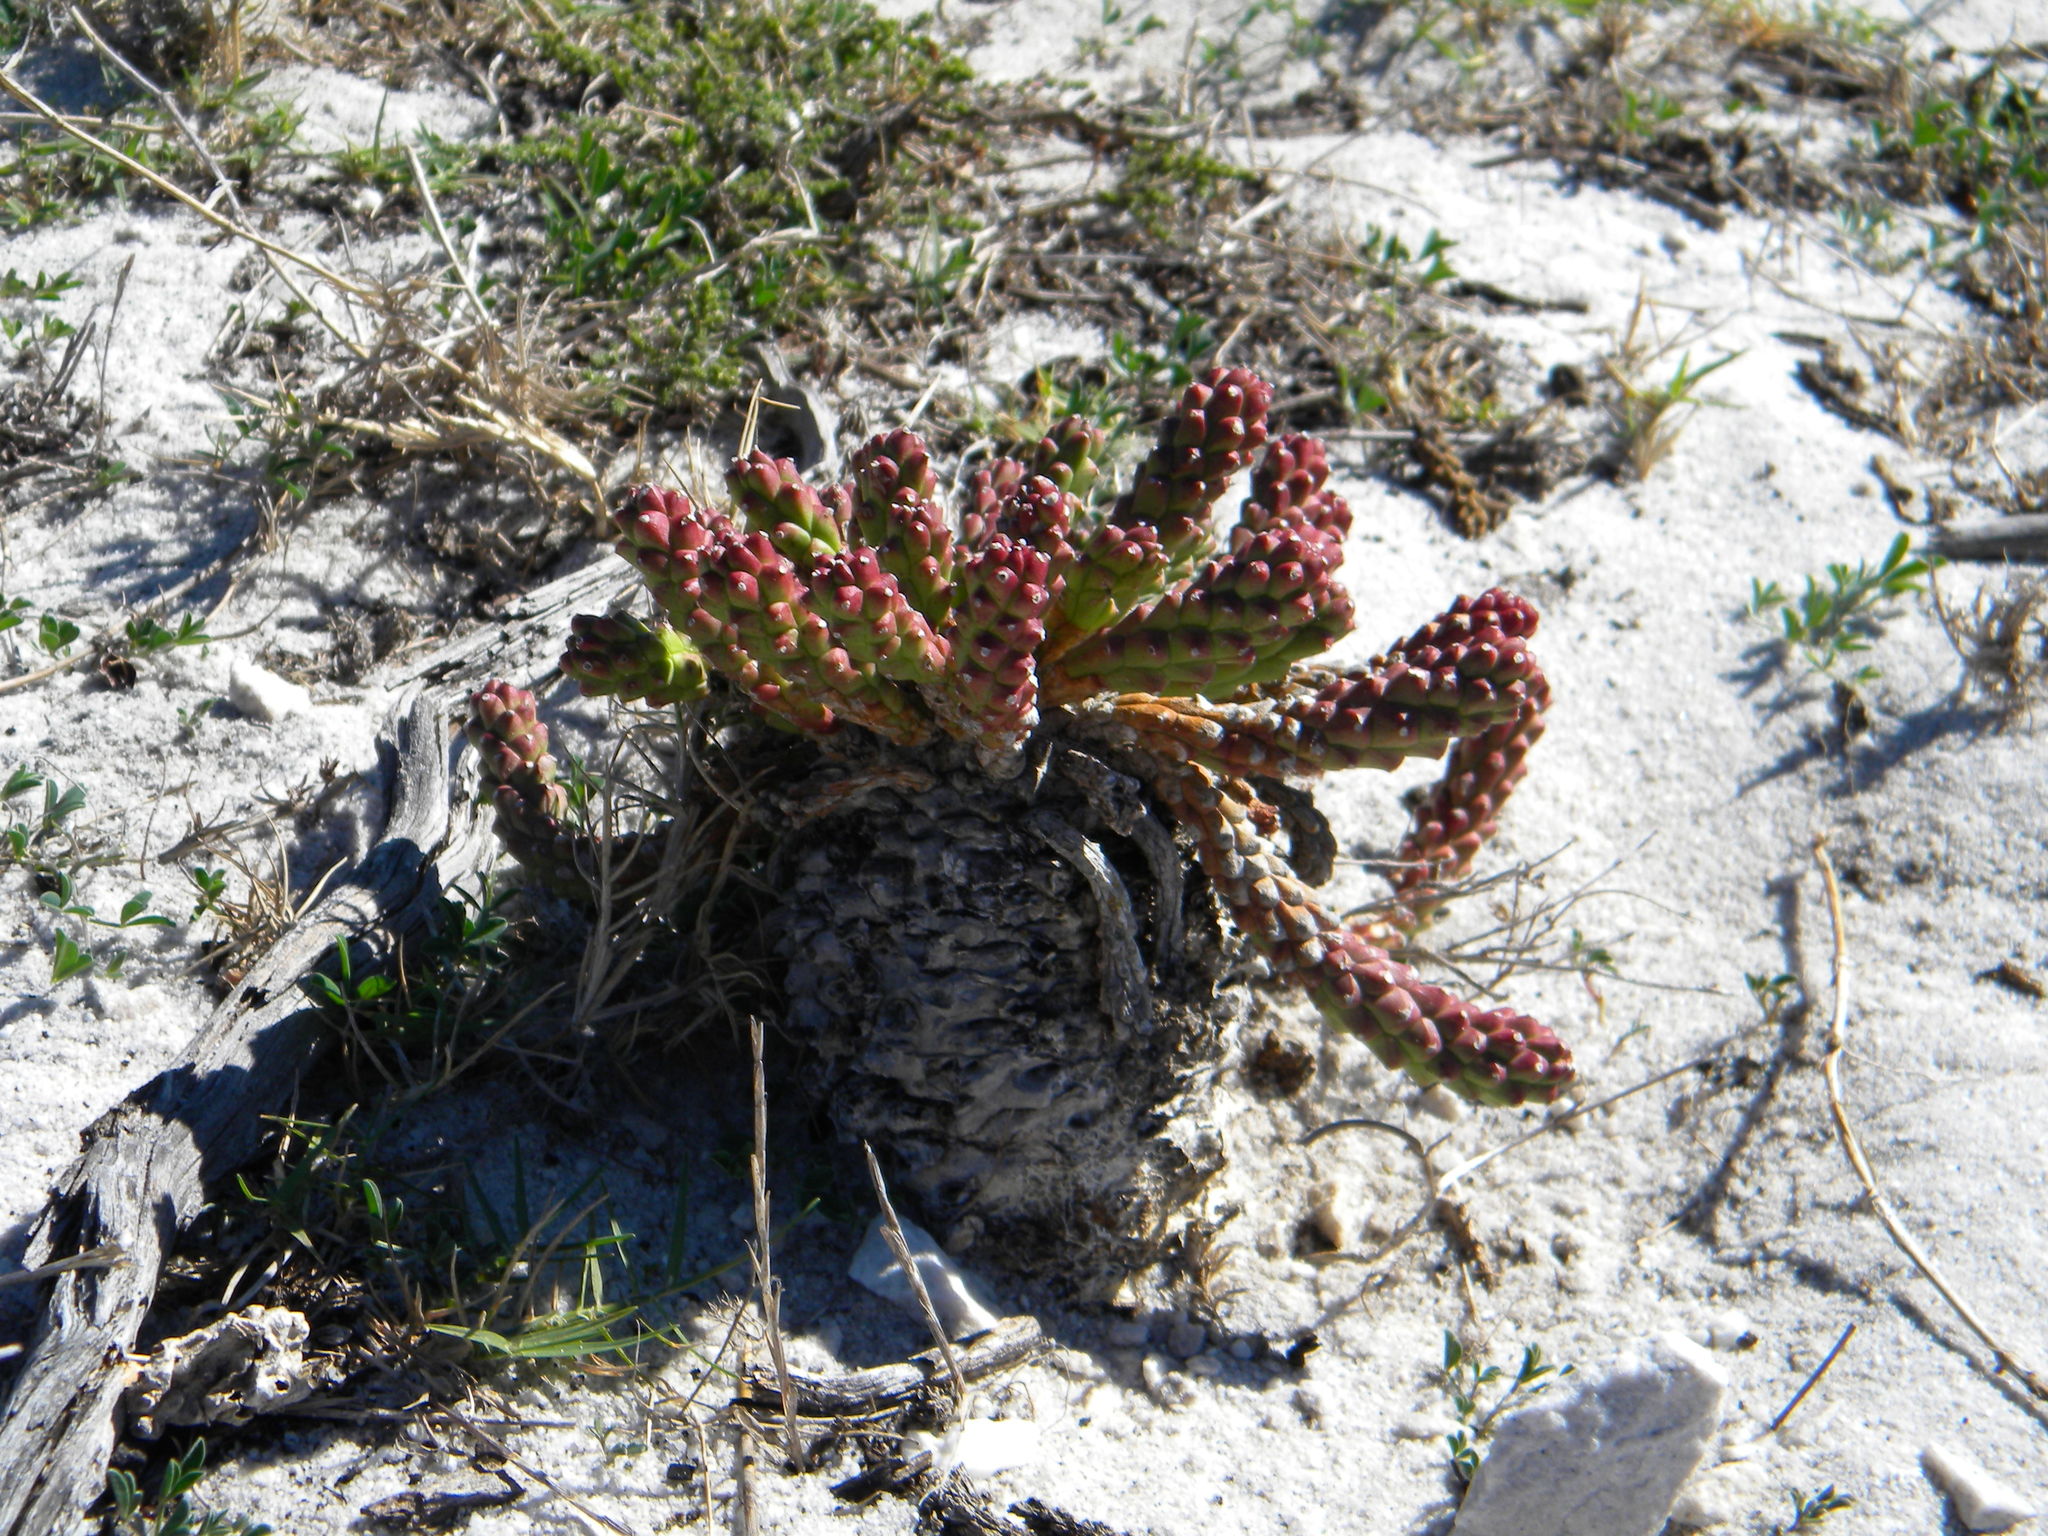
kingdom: Plantae
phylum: Tracheophyta
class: Magnoliopsida
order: Malpighiales
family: Euphorbiaceae
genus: Euphorbia
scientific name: Euphorbia caput-medusae
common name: Medusa's-head
